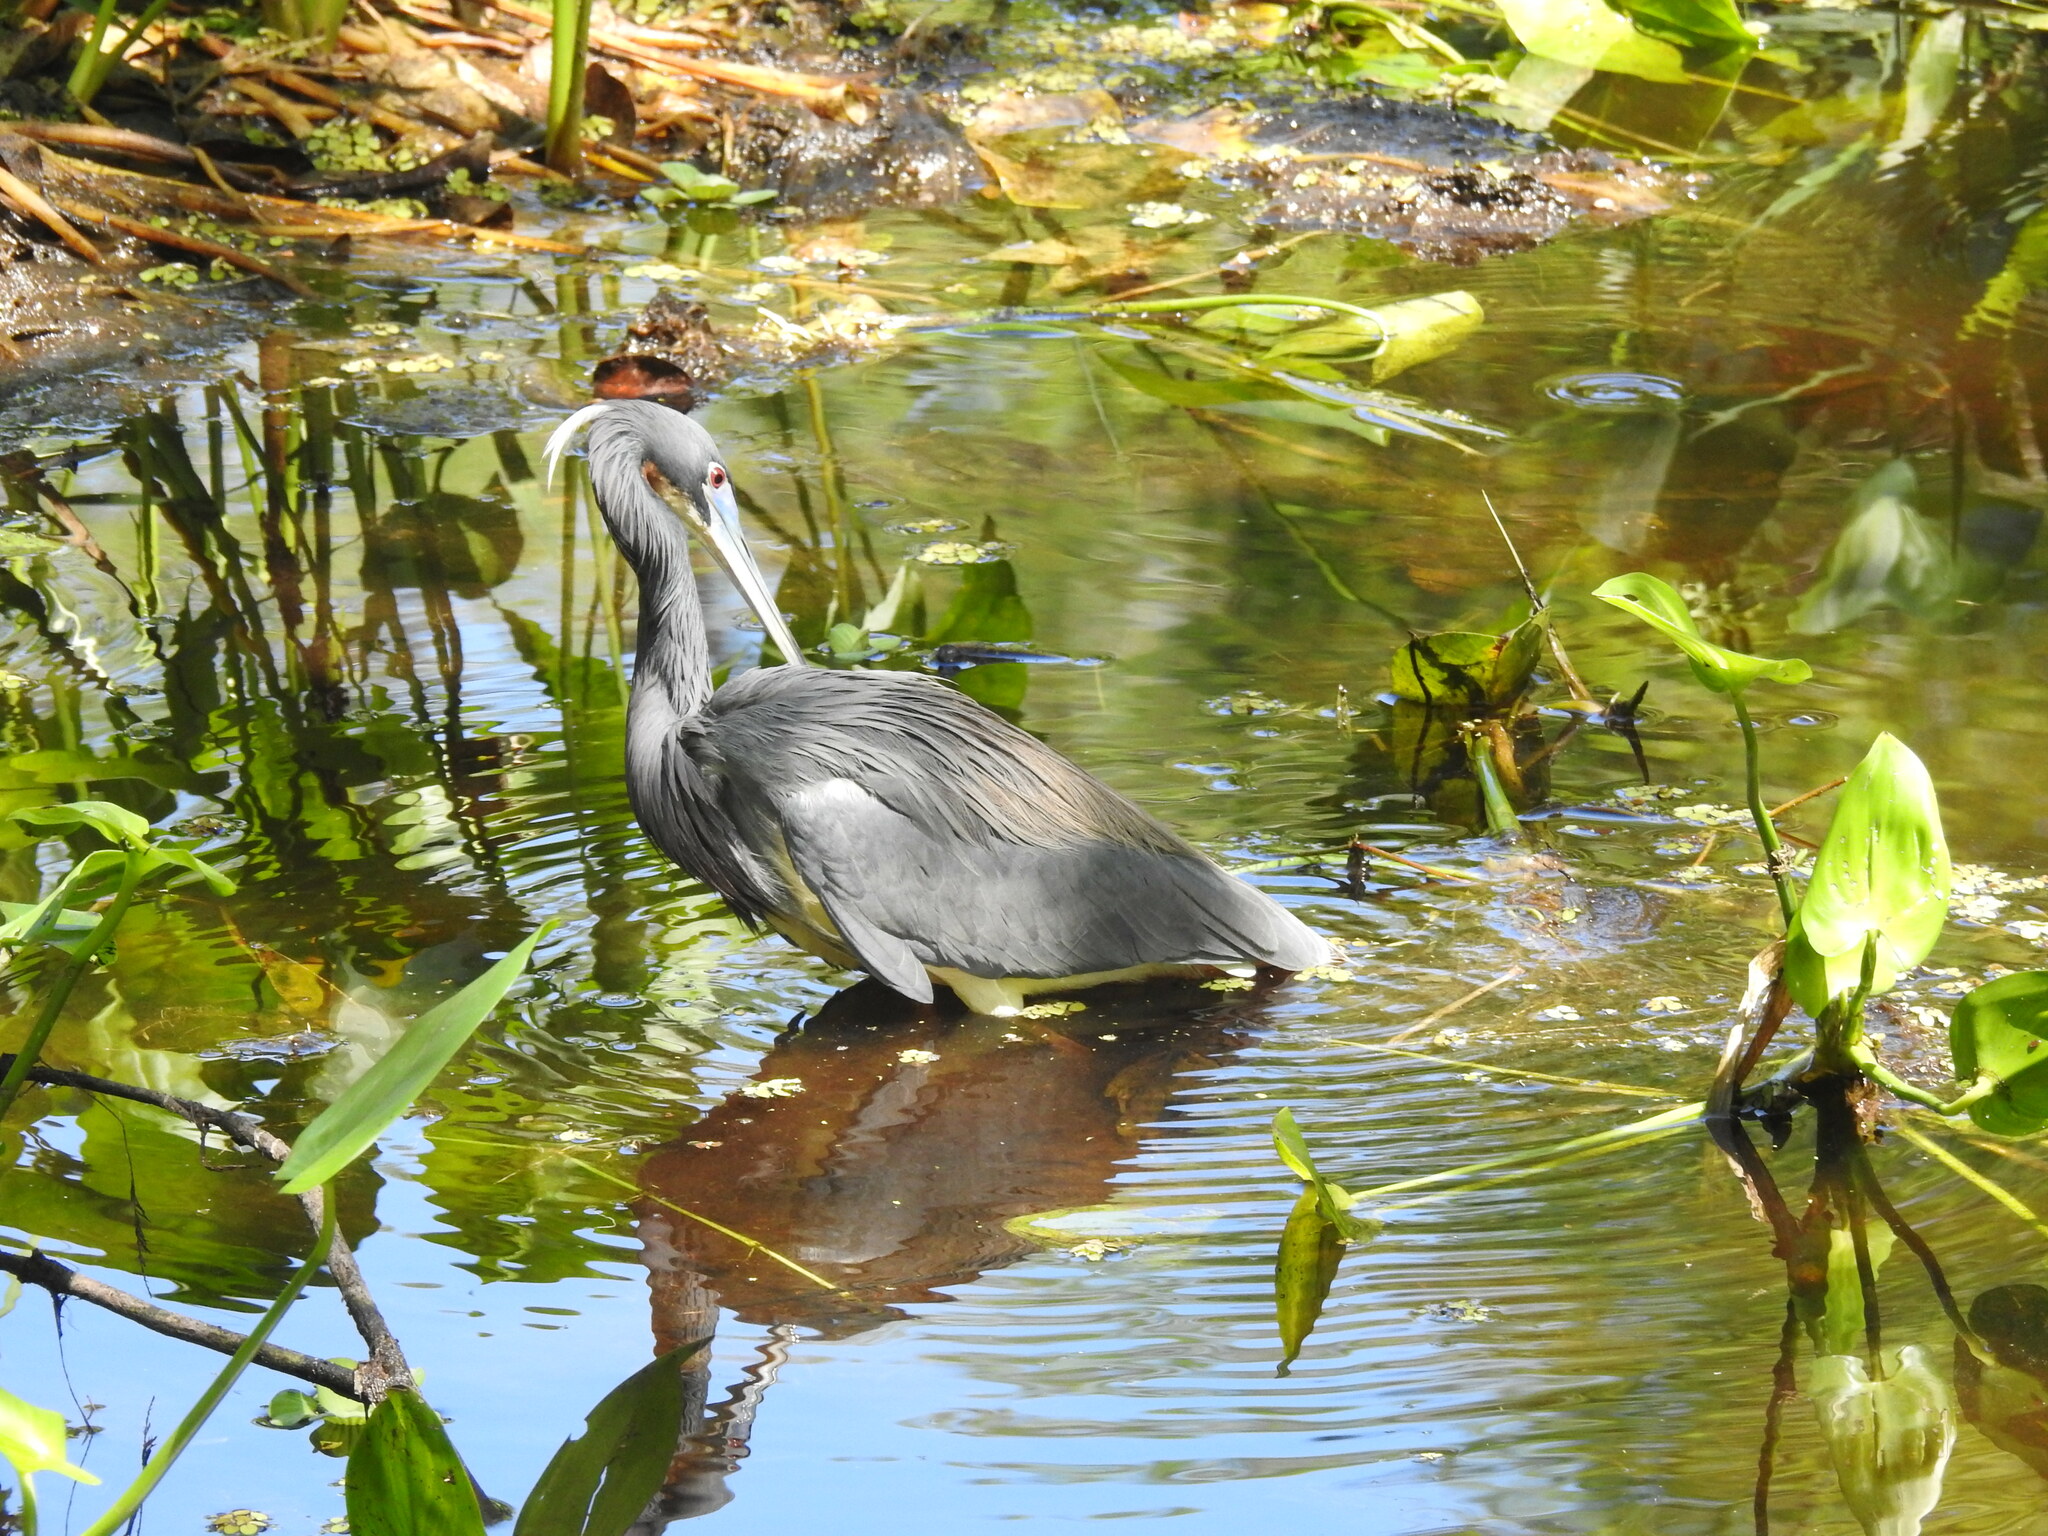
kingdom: Animalia
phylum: Chordata
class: Aves
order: Pelecaniformes
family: Ardeidae
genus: Egretta
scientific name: Egretta tricolor
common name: Tricolored heron
